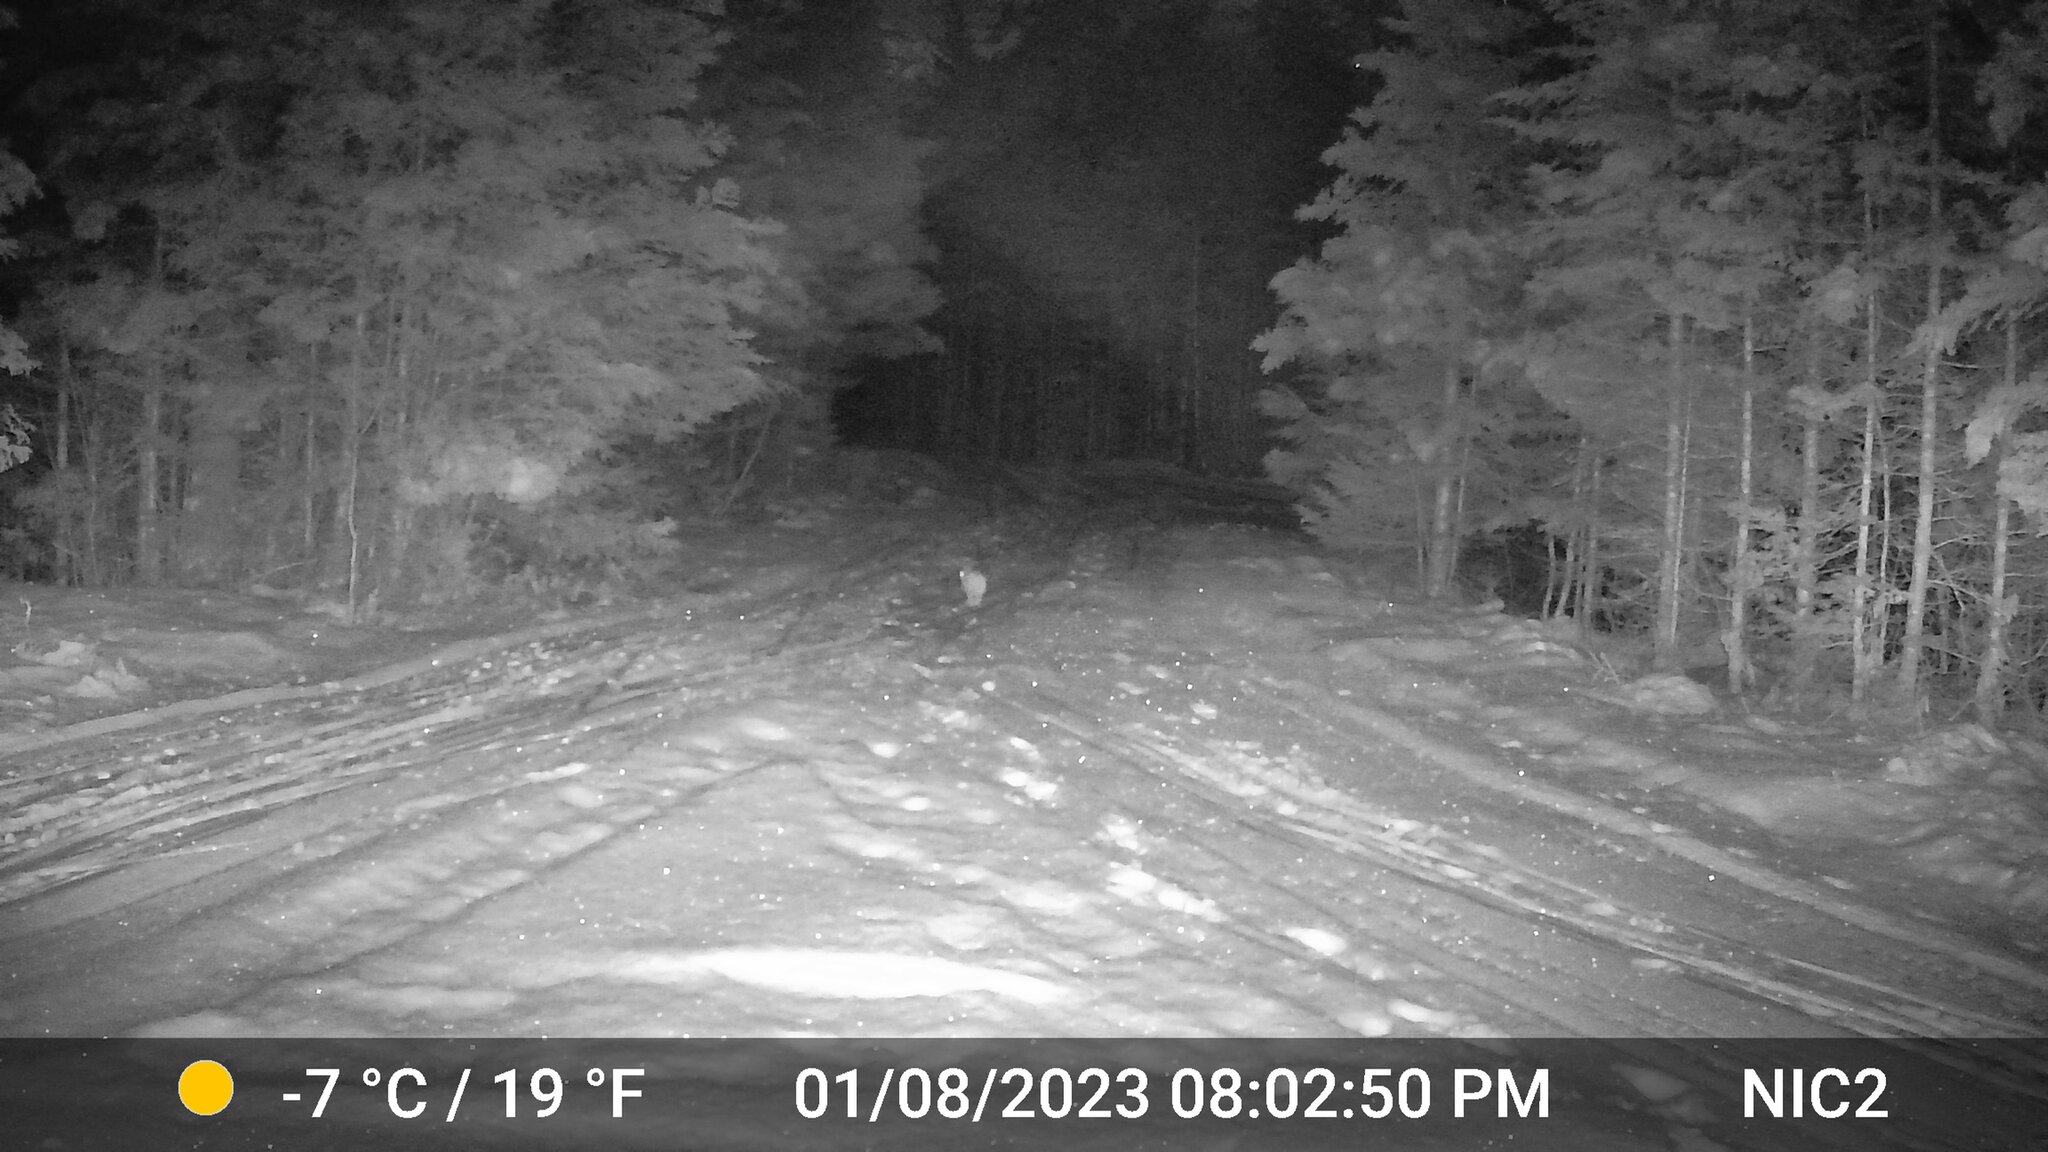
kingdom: Animalia
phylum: Chordata
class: Mammalia
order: Lagomorpha
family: Leporidae
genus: Lepus
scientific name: Lepus americanus
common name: Snowshoe hare
